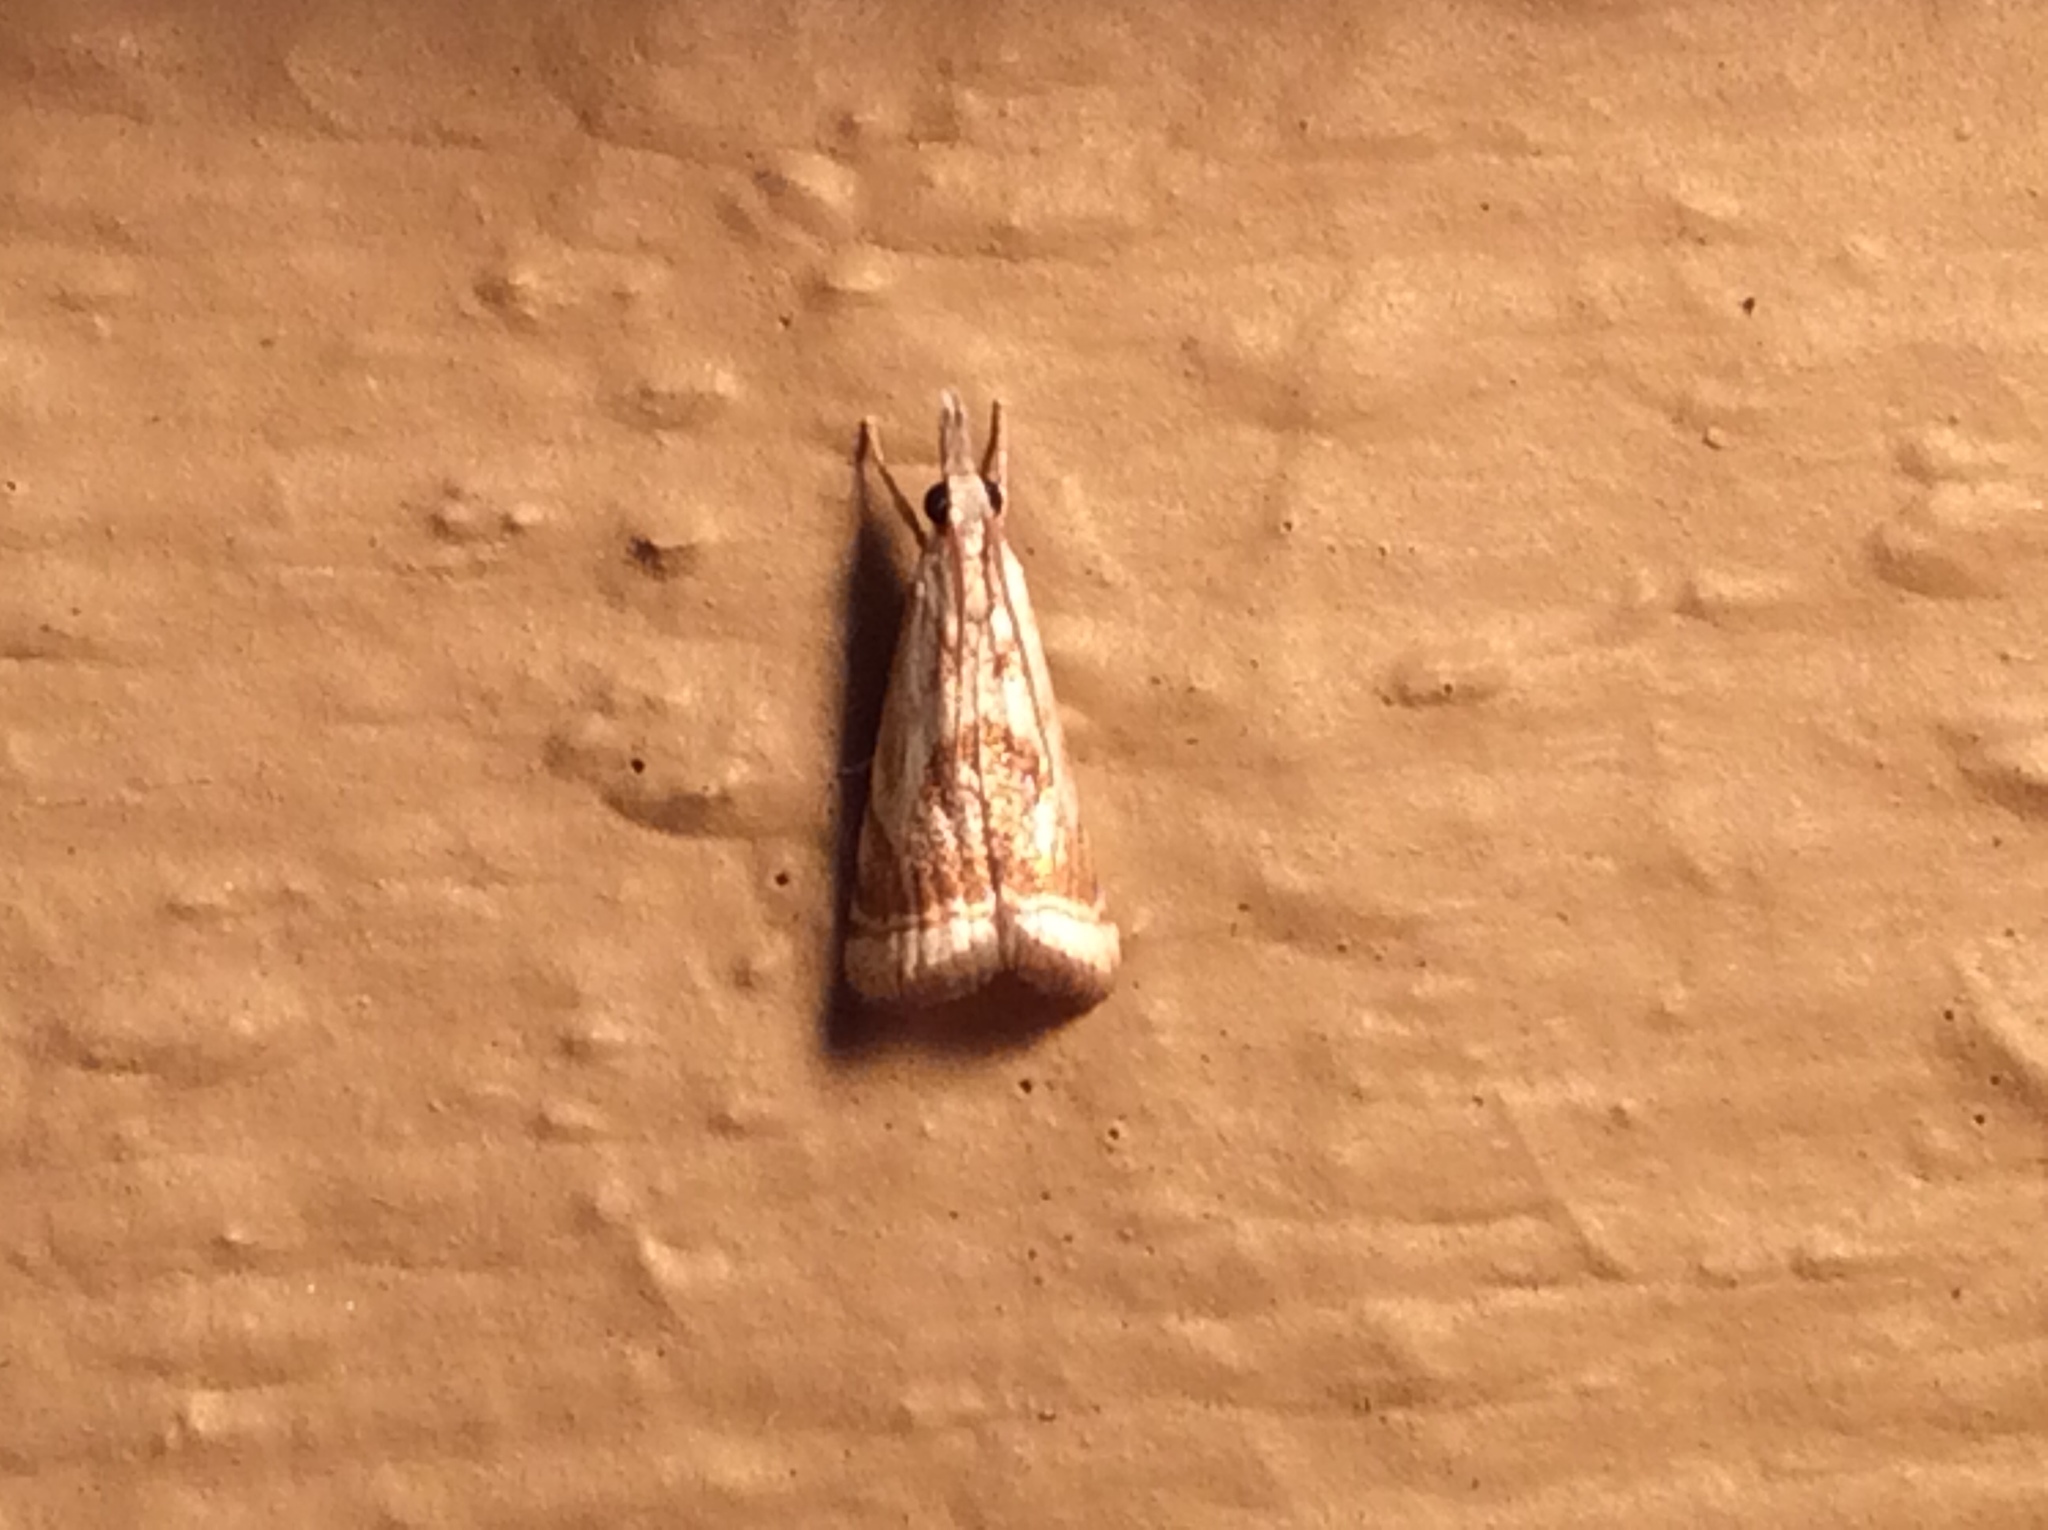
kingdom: Animalia
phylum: Arthropoda
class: Insecta
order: Lepidoptera
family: Crambidae
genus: Microcrambus
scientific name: Microcrambus elegans
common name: Elegant grass-veneer
